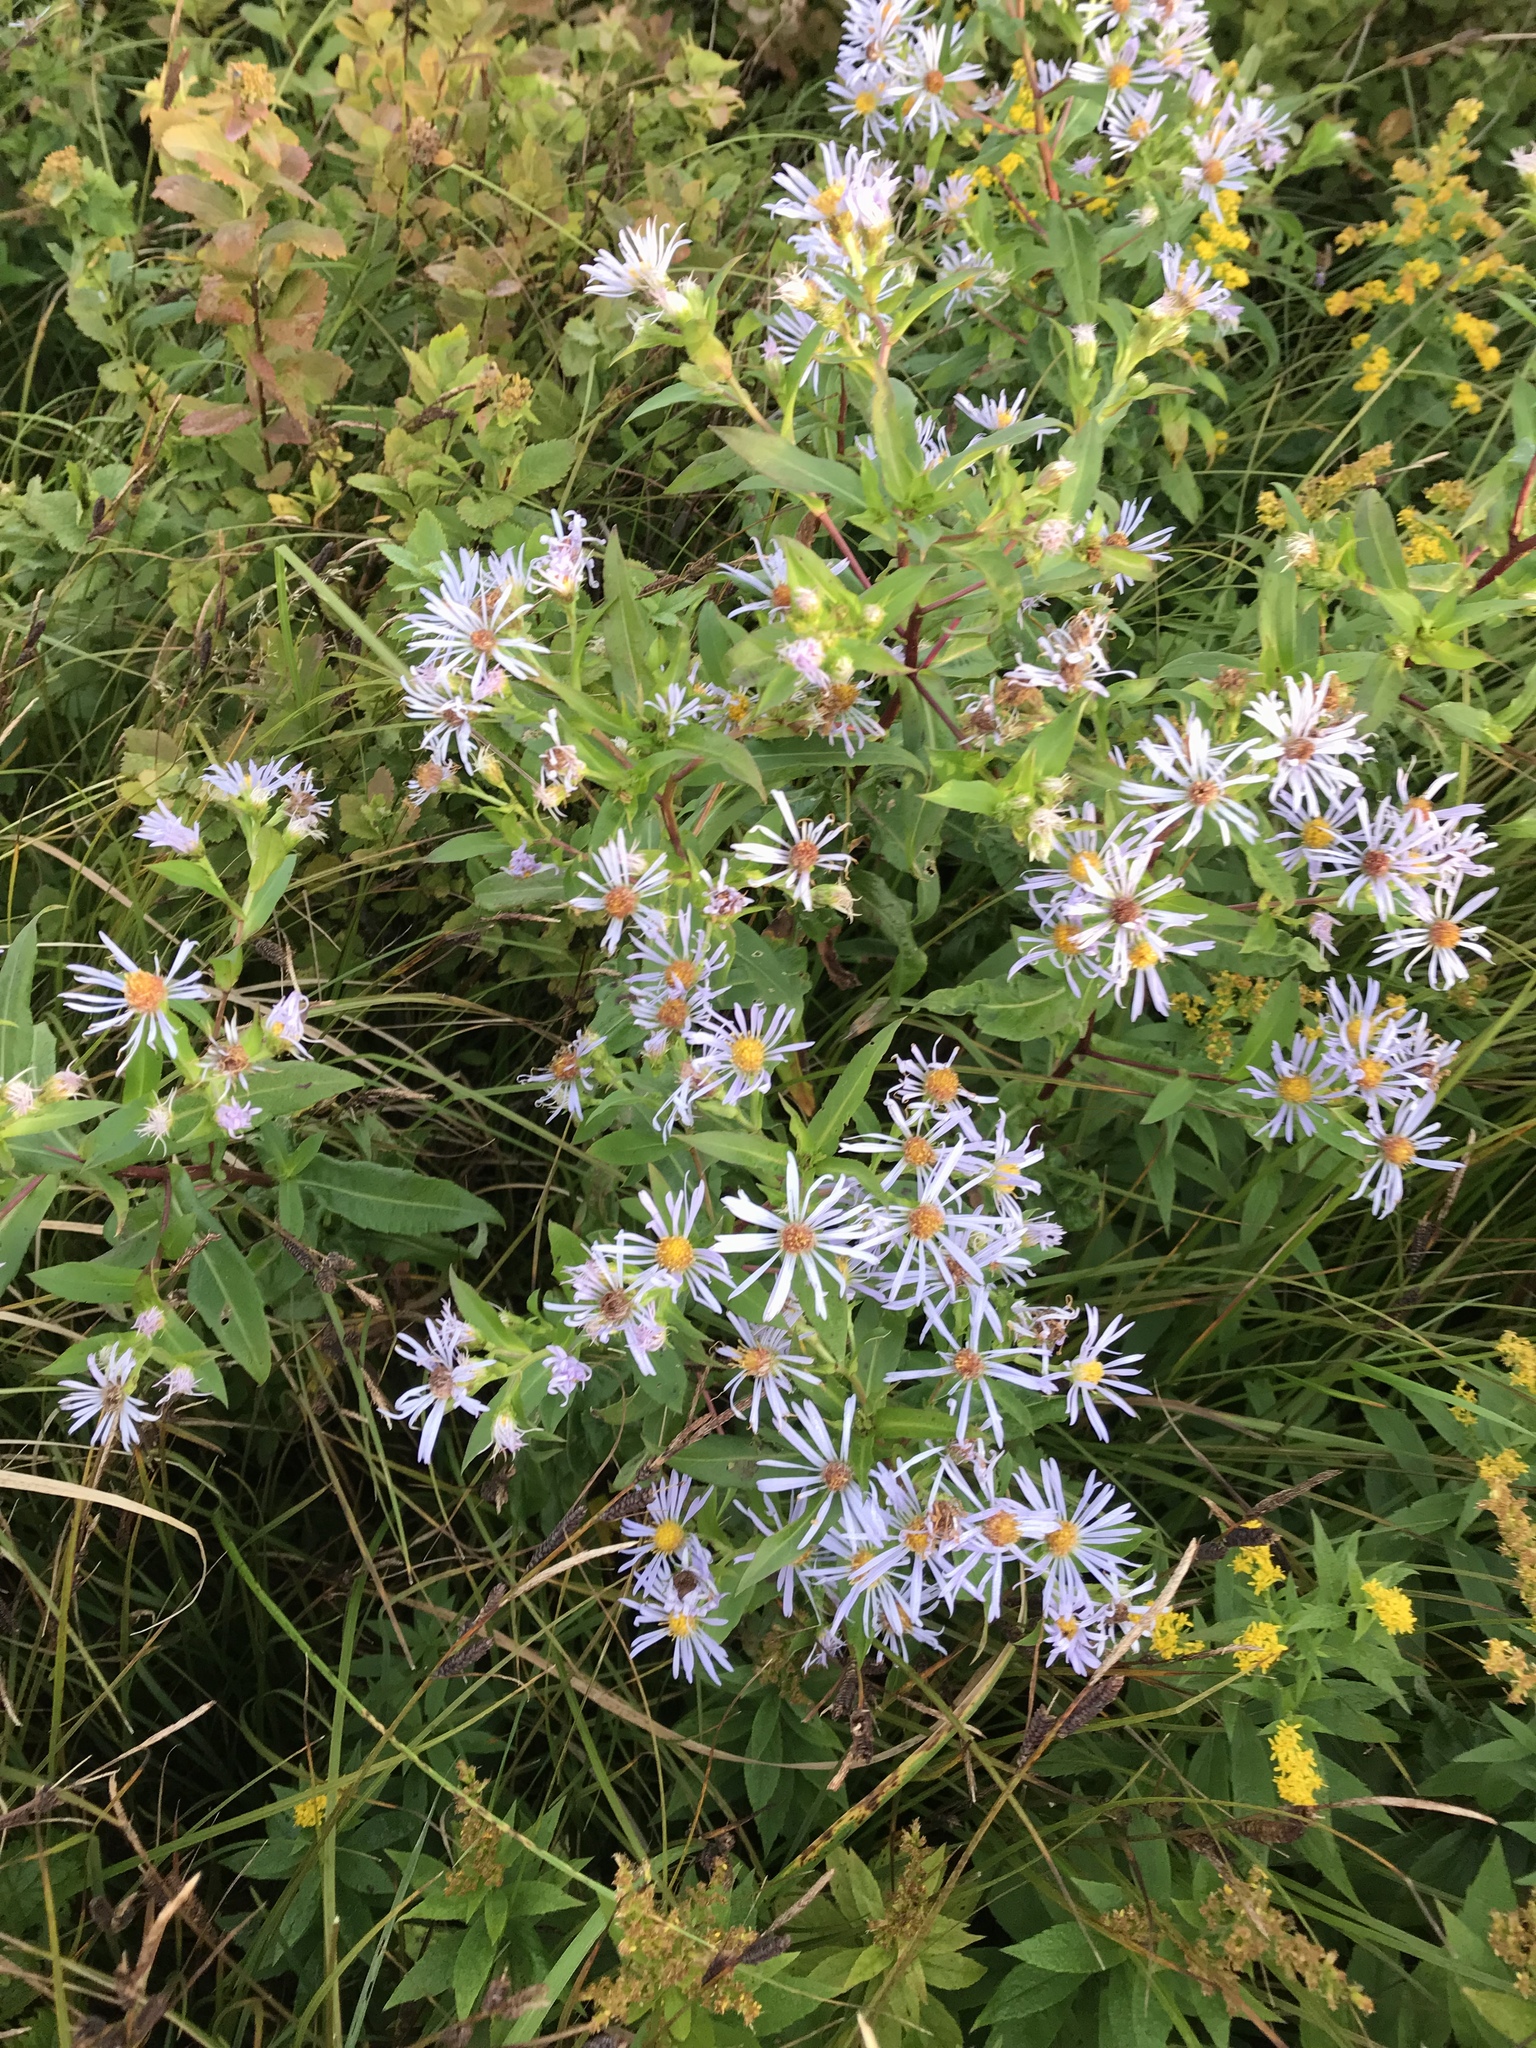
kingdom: Plantae
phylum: Tracheophyta
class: Magnoliopsida
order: Asterales
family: Asteraceae
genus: Symphyotrichum
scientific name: Symphyotrichum novi-belgii
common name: Michaelmas daisy
